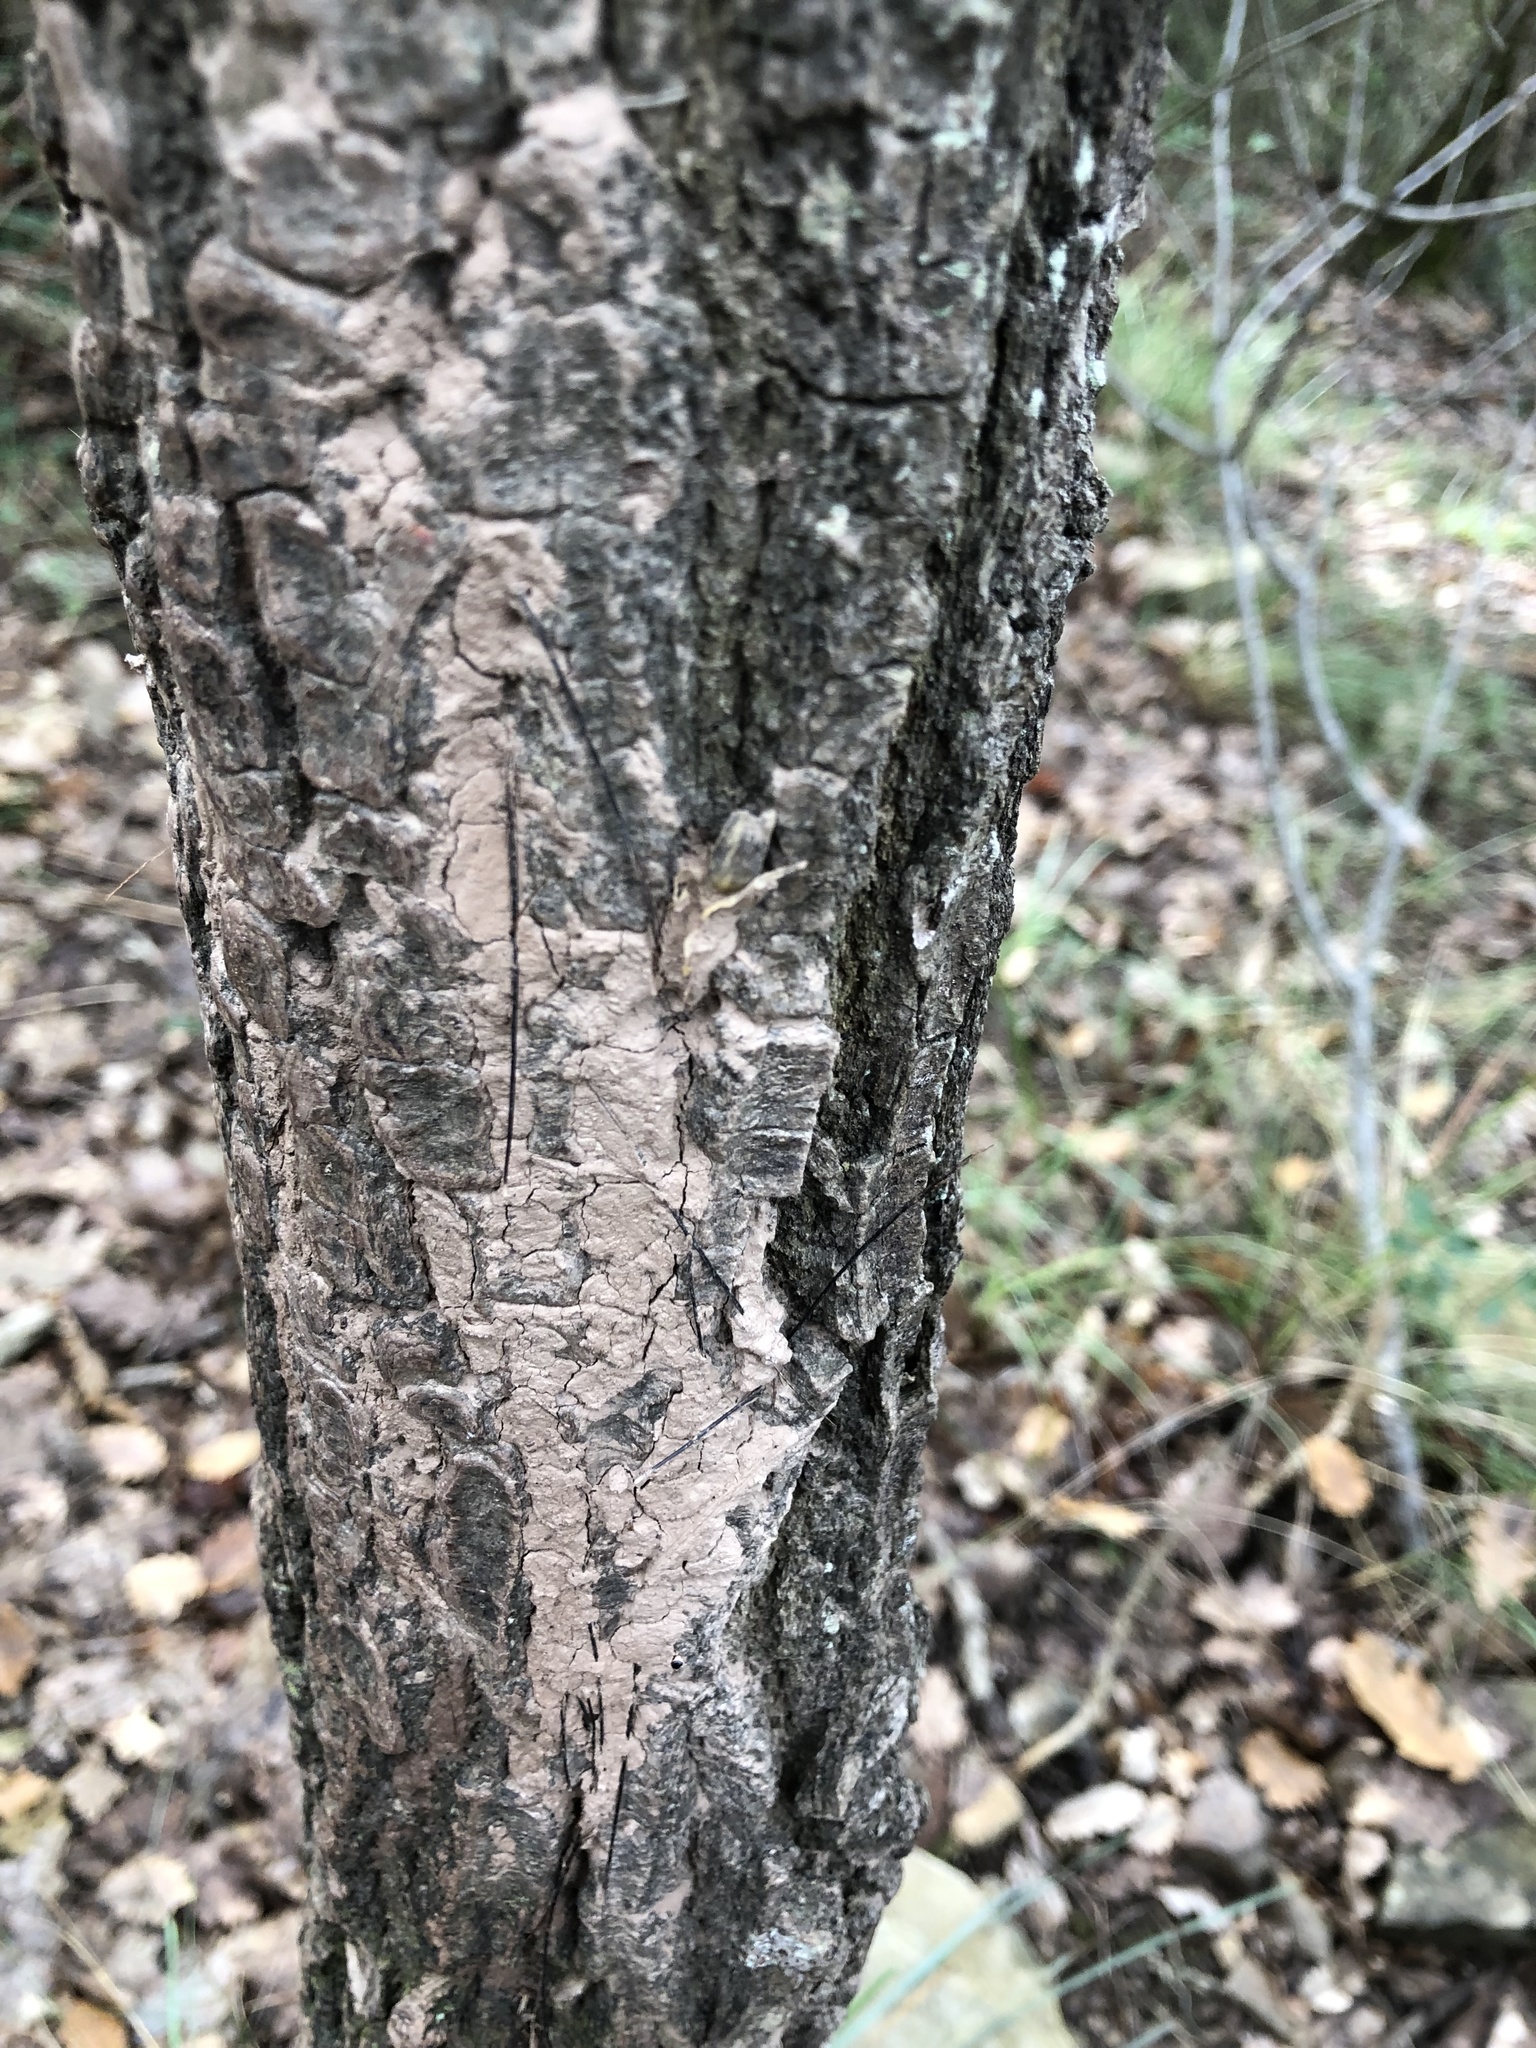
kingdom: Animalia
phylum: Chordata
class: Mammalia
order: Artiodactyla
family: Suidae
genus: Sus
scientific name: Sus scrofa
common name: Wild boar
